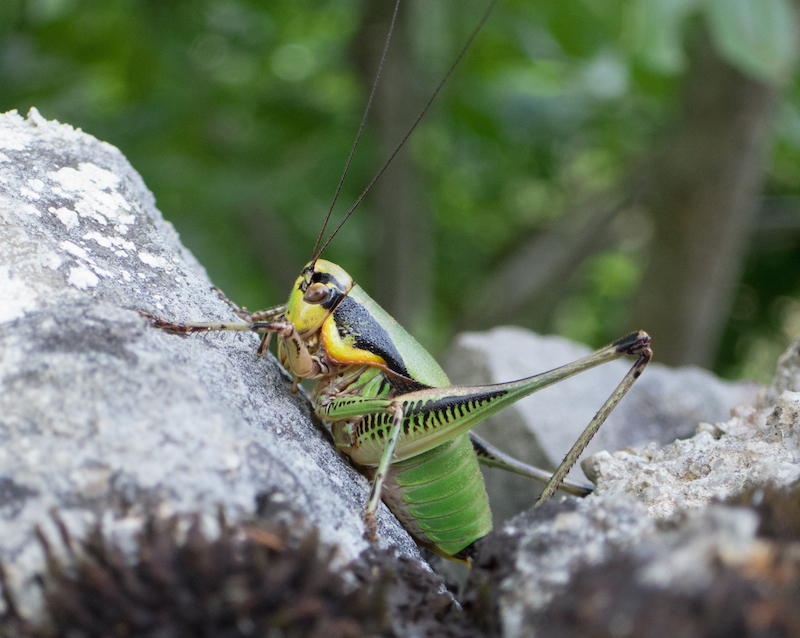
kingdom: Animalia
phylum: Arthropoda
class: Insecta
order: Orthoptera
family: Tettigoniidae
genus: Eupholidoptera
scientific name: Eupholidoptera schmidti
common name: Schmidt's marbled bush-cricket
